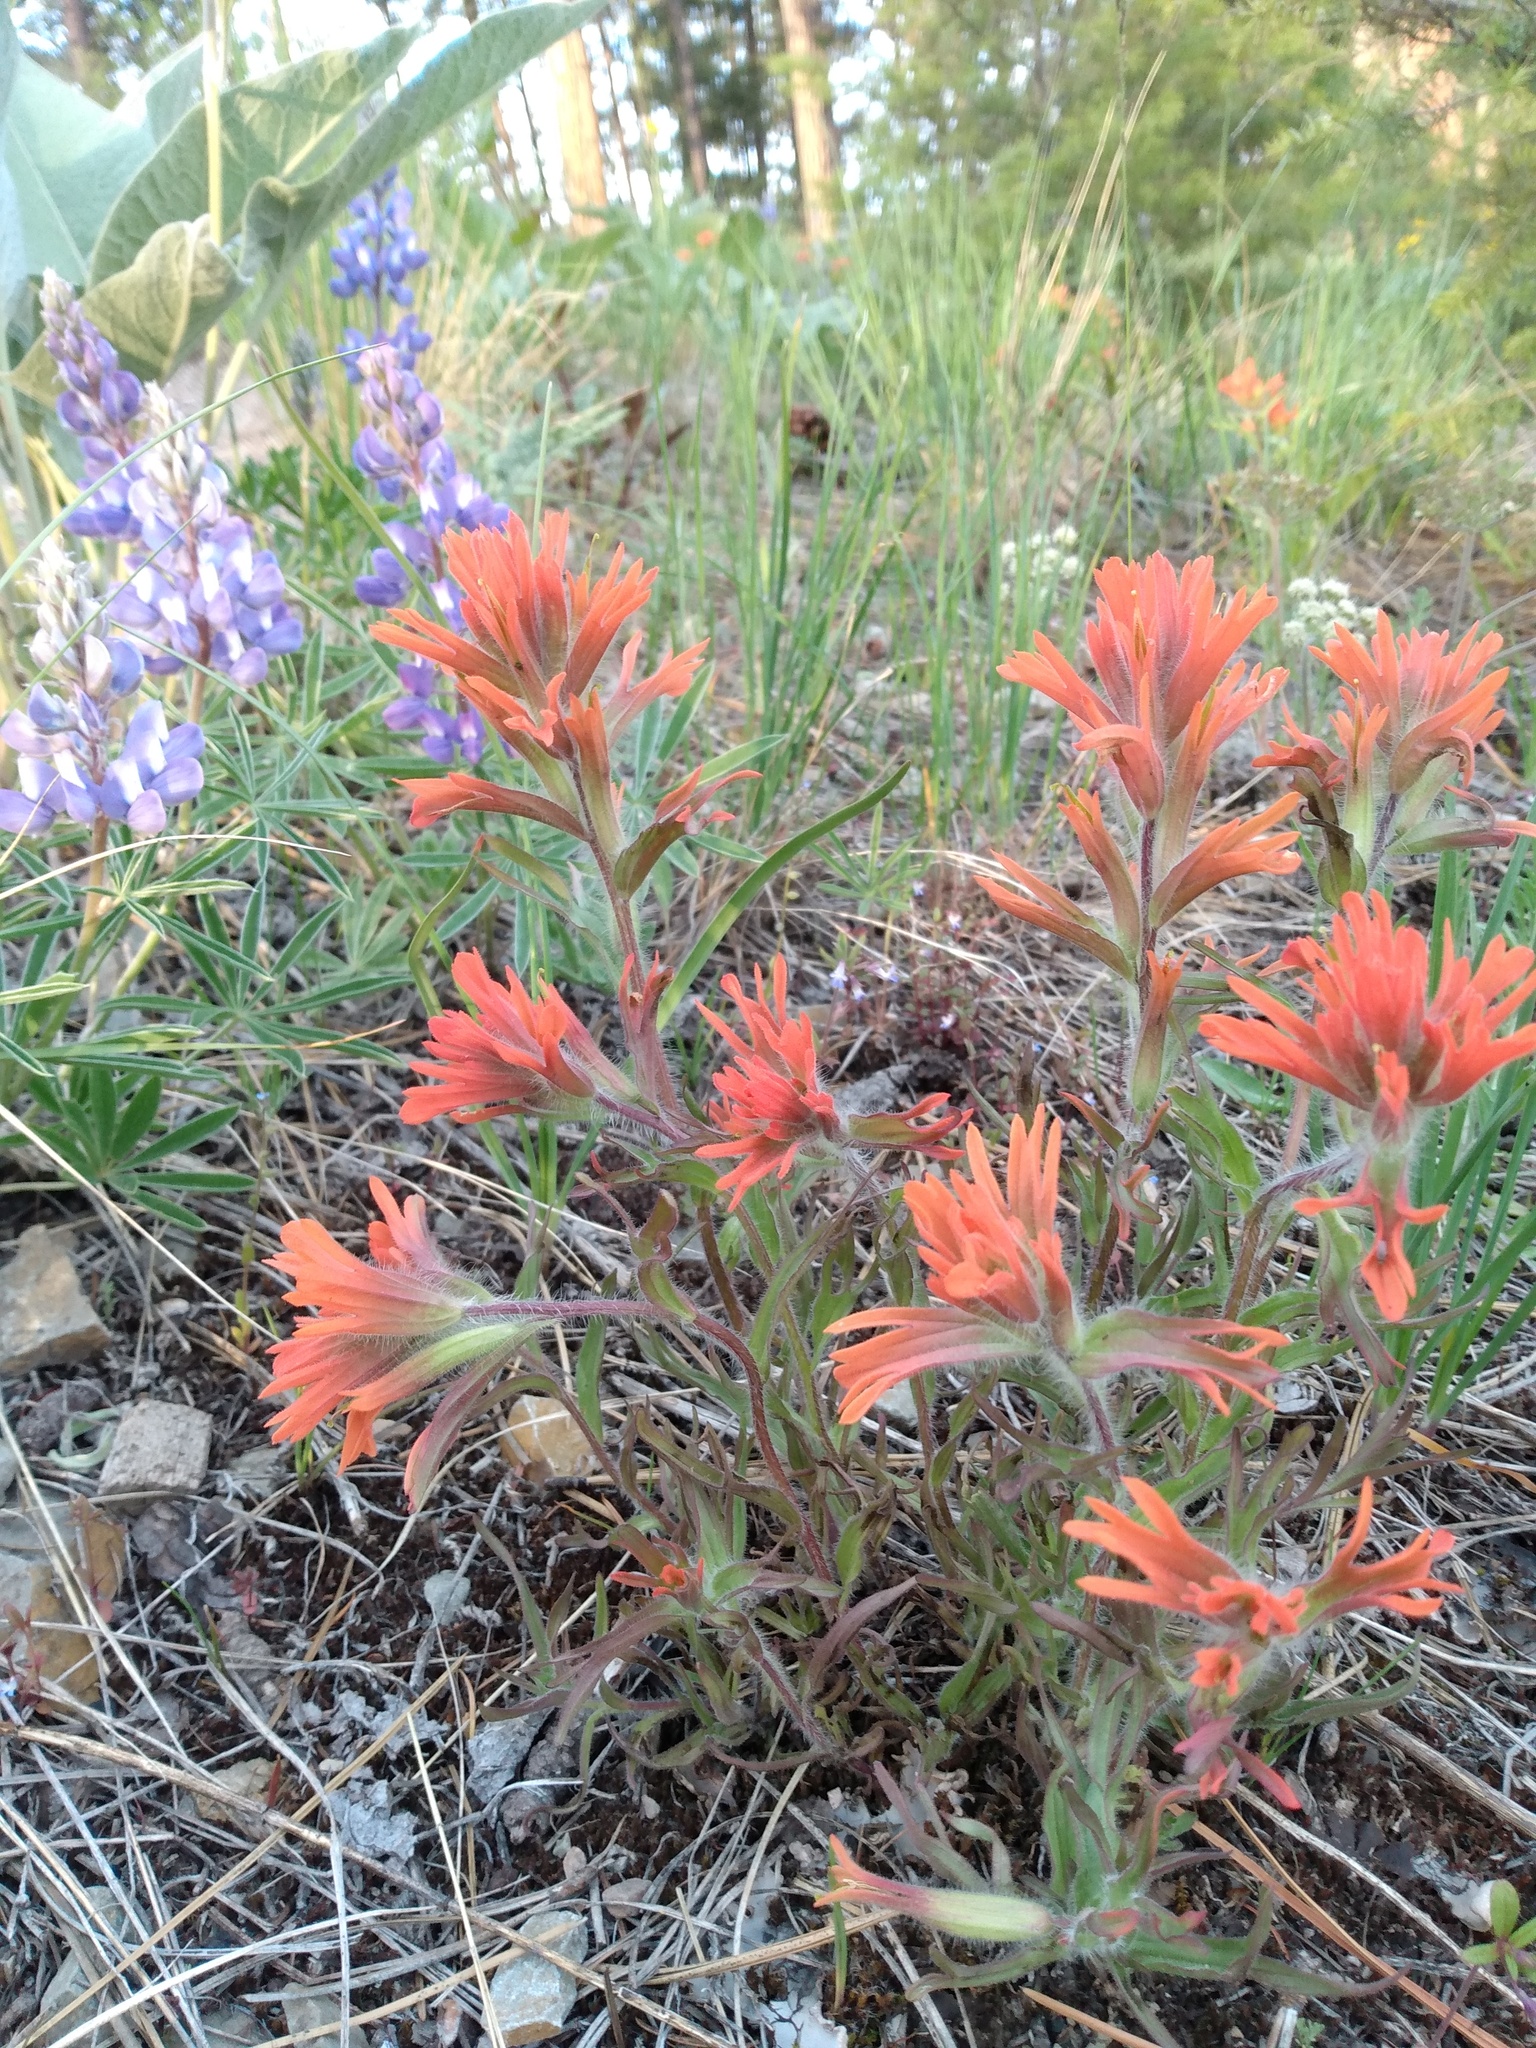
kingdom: Plantae
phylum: Tracheophyta
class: Magnoliopsida
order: Lamiales
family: Orobanchaceae
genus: Castilleja
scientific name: Castilleja hispida
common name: Bristly paintbrush
